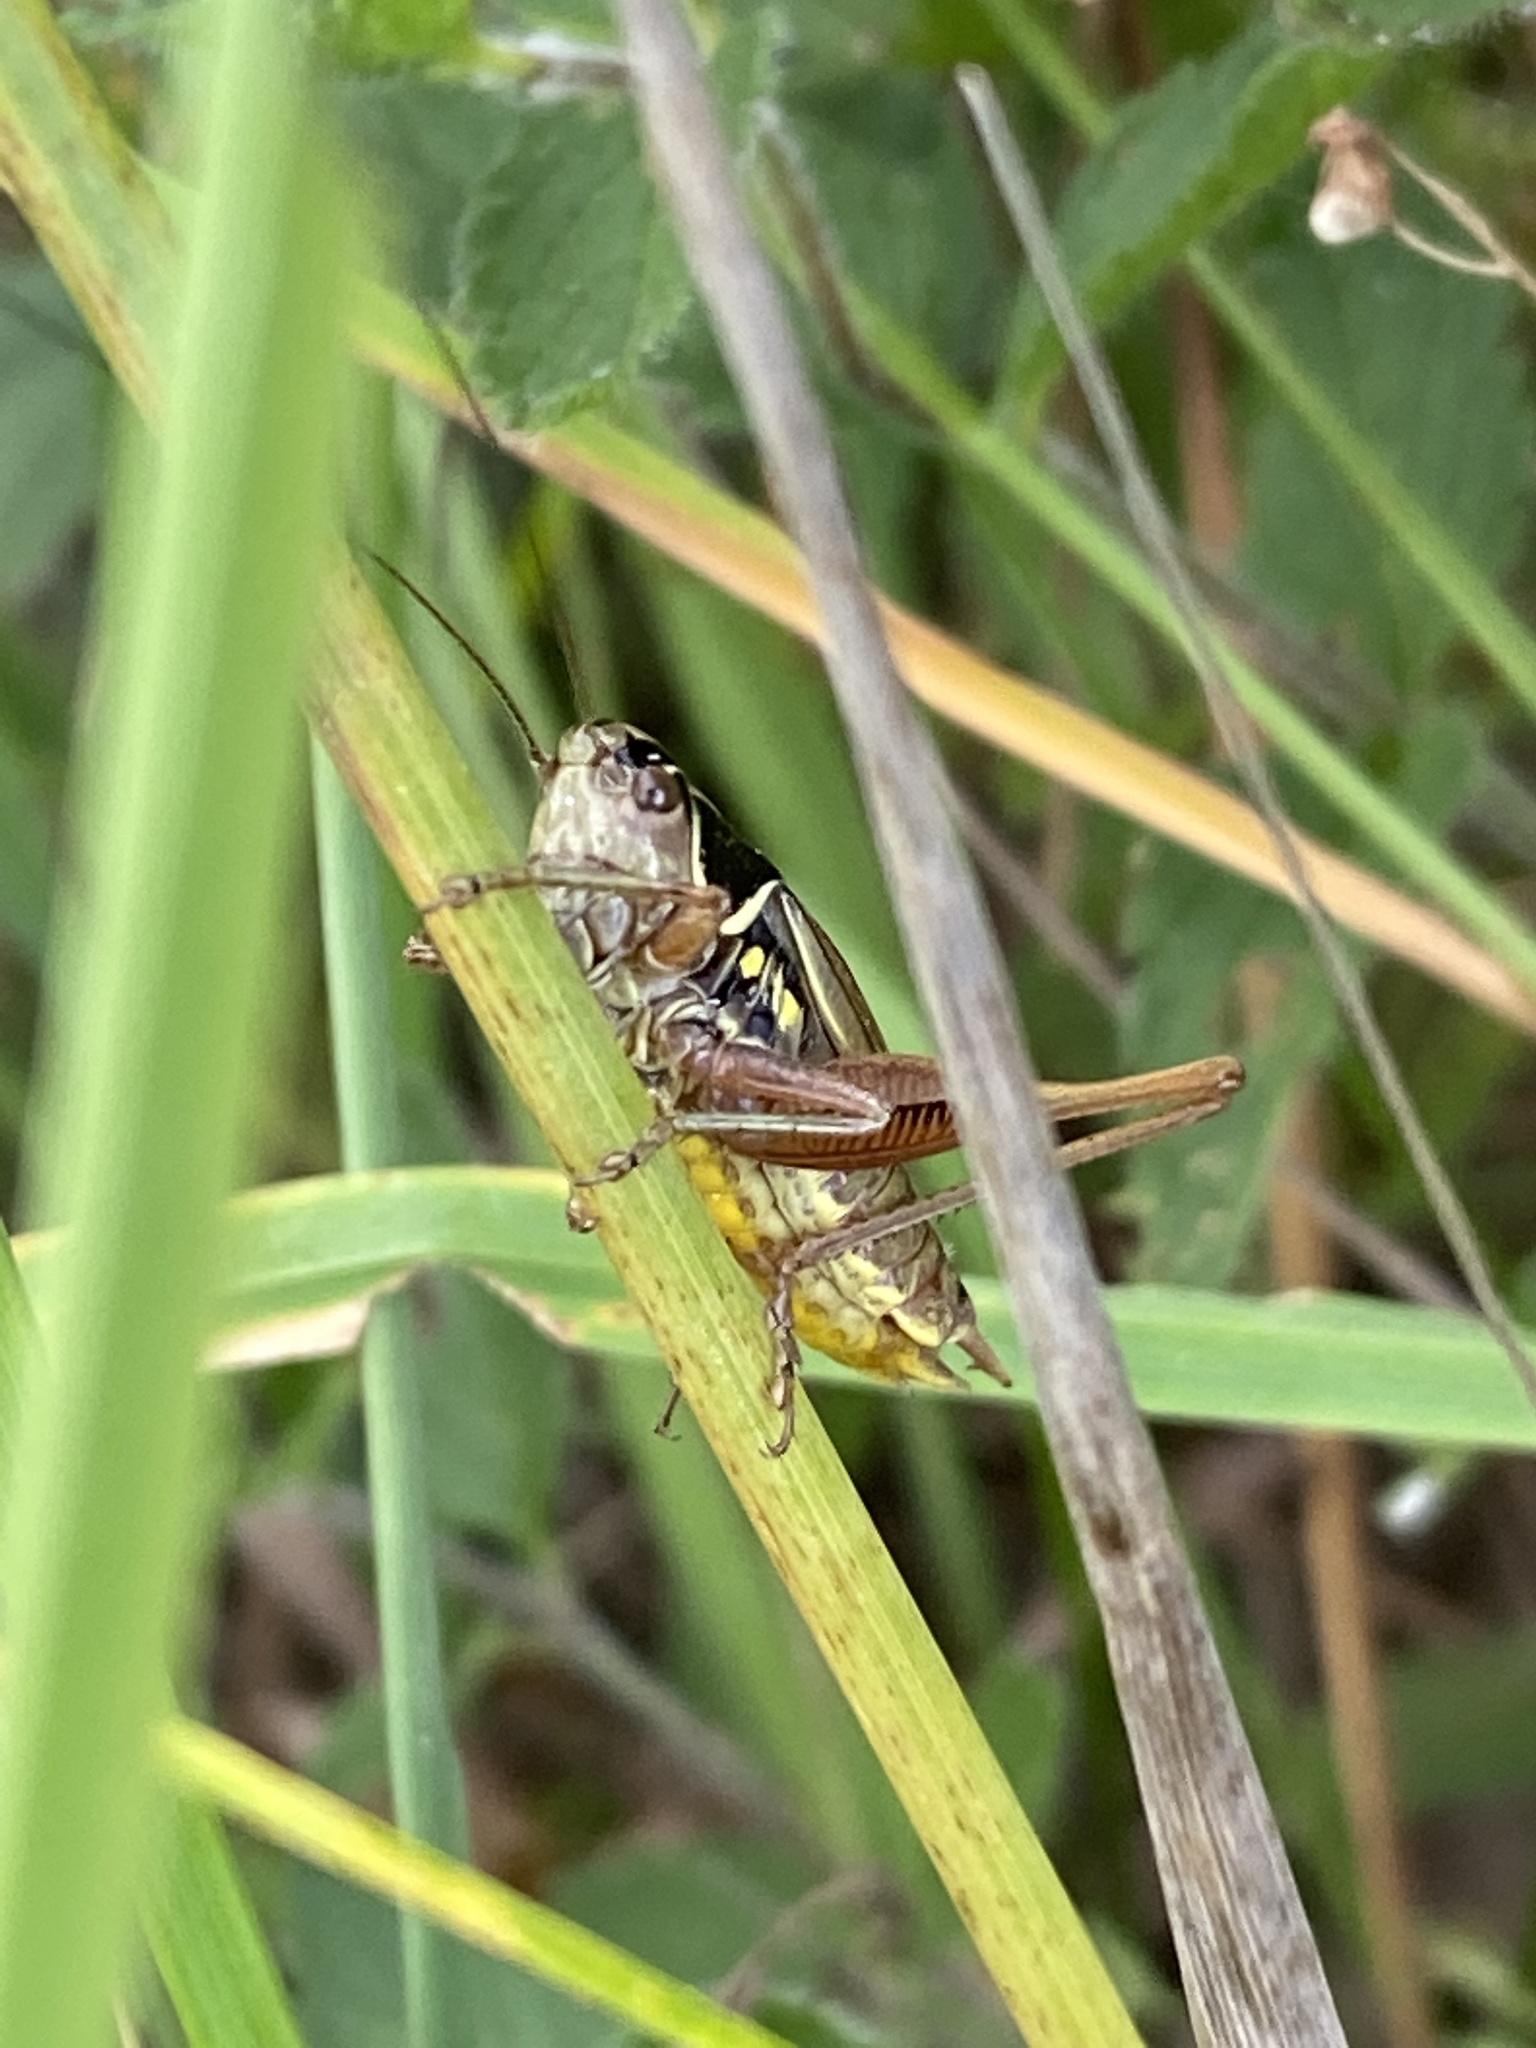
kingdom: Animalia
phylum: Arthropoda
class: Insecta
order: Orthoptera
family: Tettigoniidae
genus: Roeseliana
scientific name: Roeseliana roeselii
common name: Roesel's bush cricket
